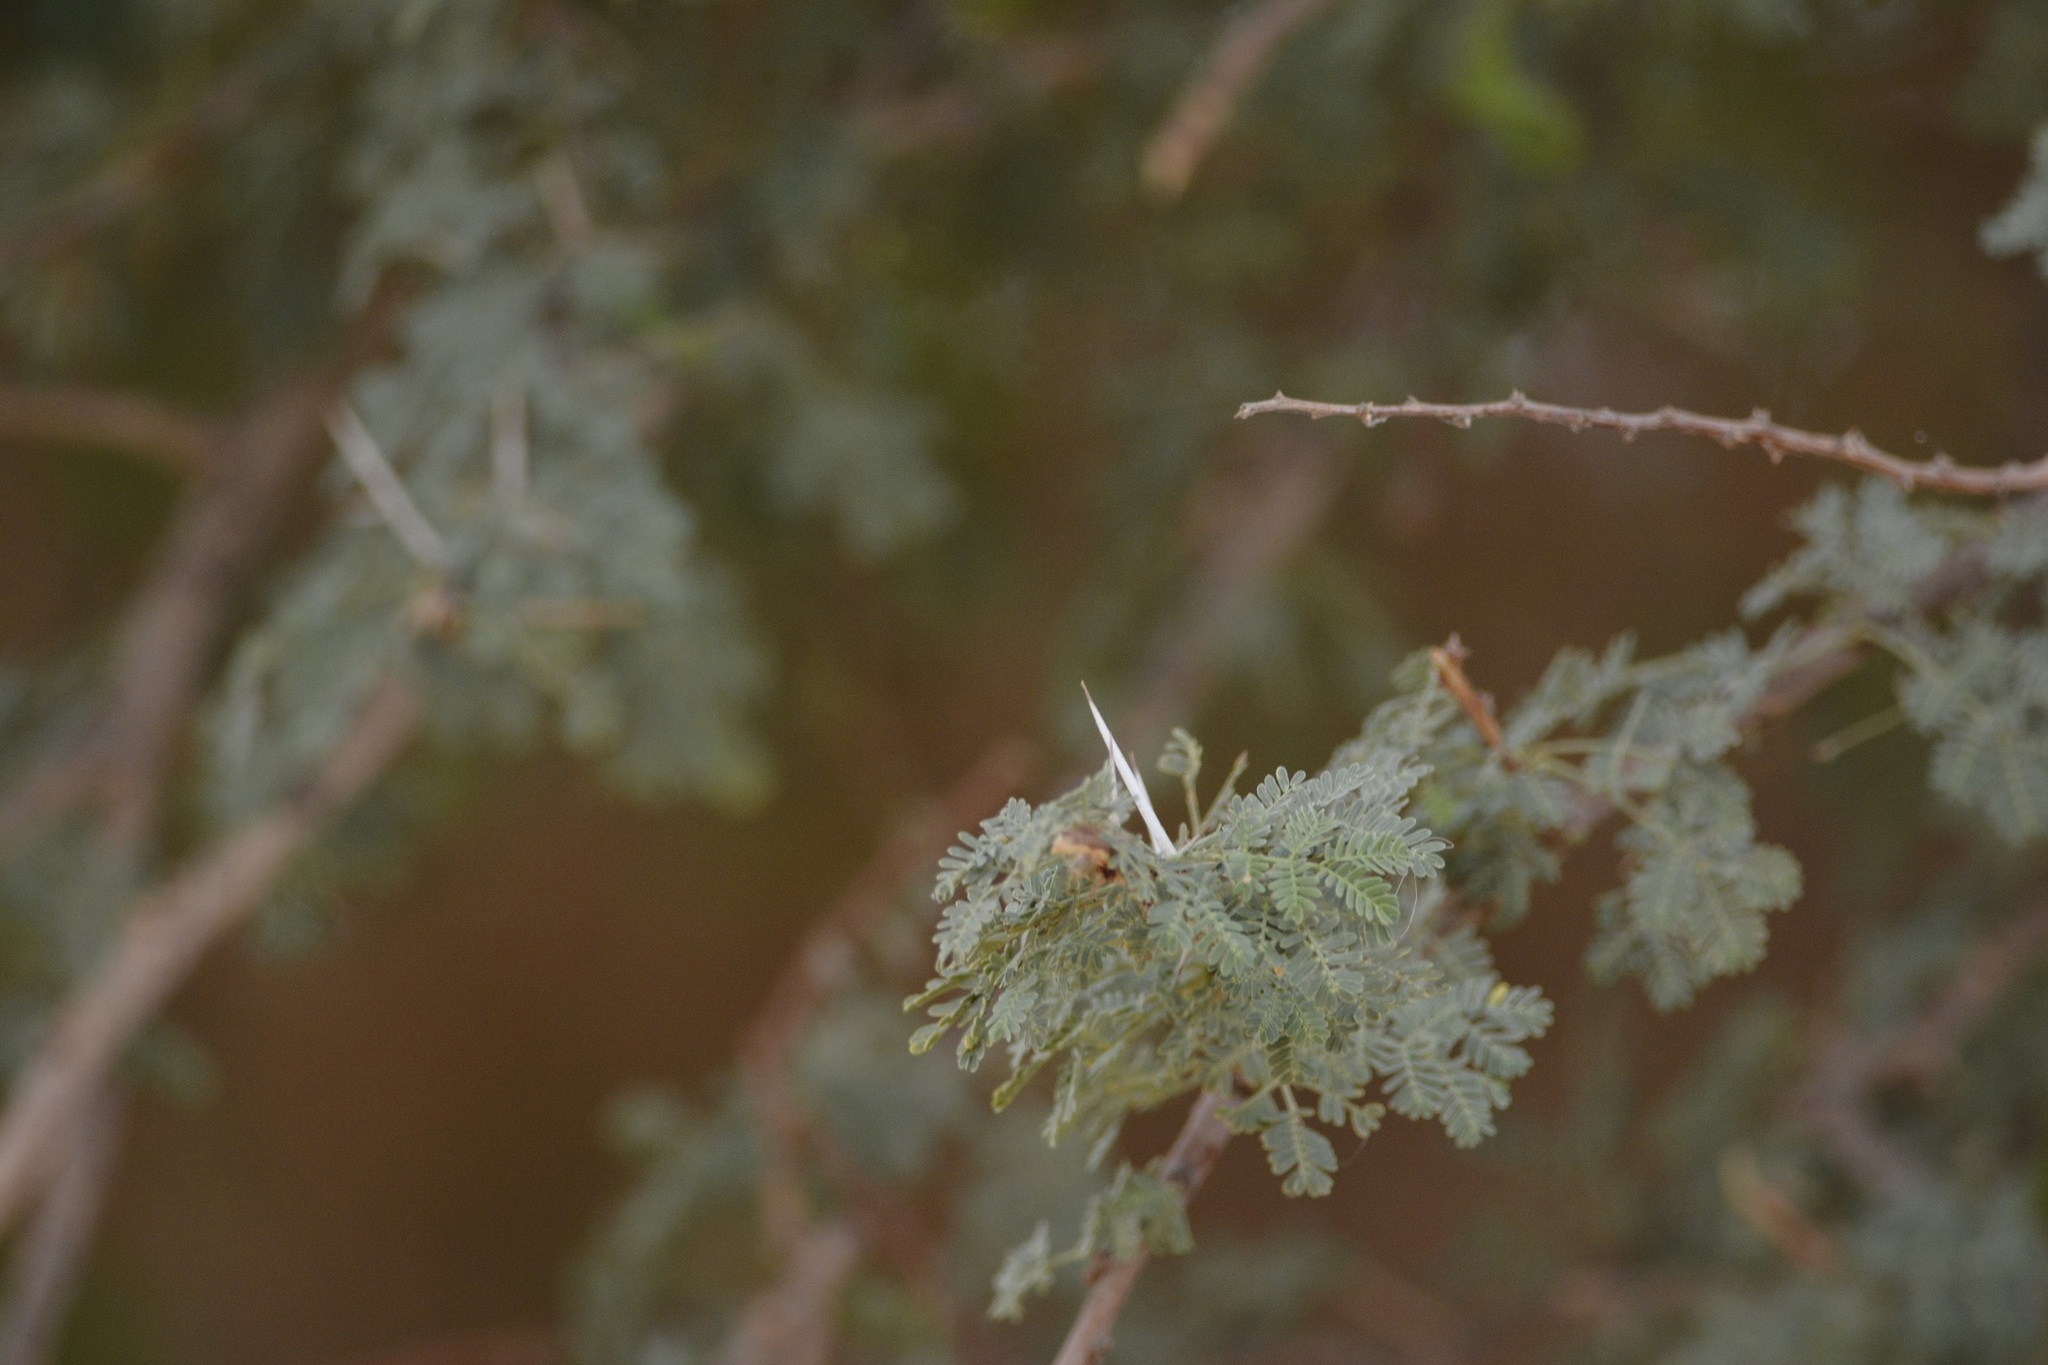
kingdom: Plantae
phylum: Tracheophyta
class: Magnoliopsida
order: Fabales
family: Fabaceae
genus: Vachellia
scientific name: Vachellia tortilis
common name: Umbrella thorn acacia
